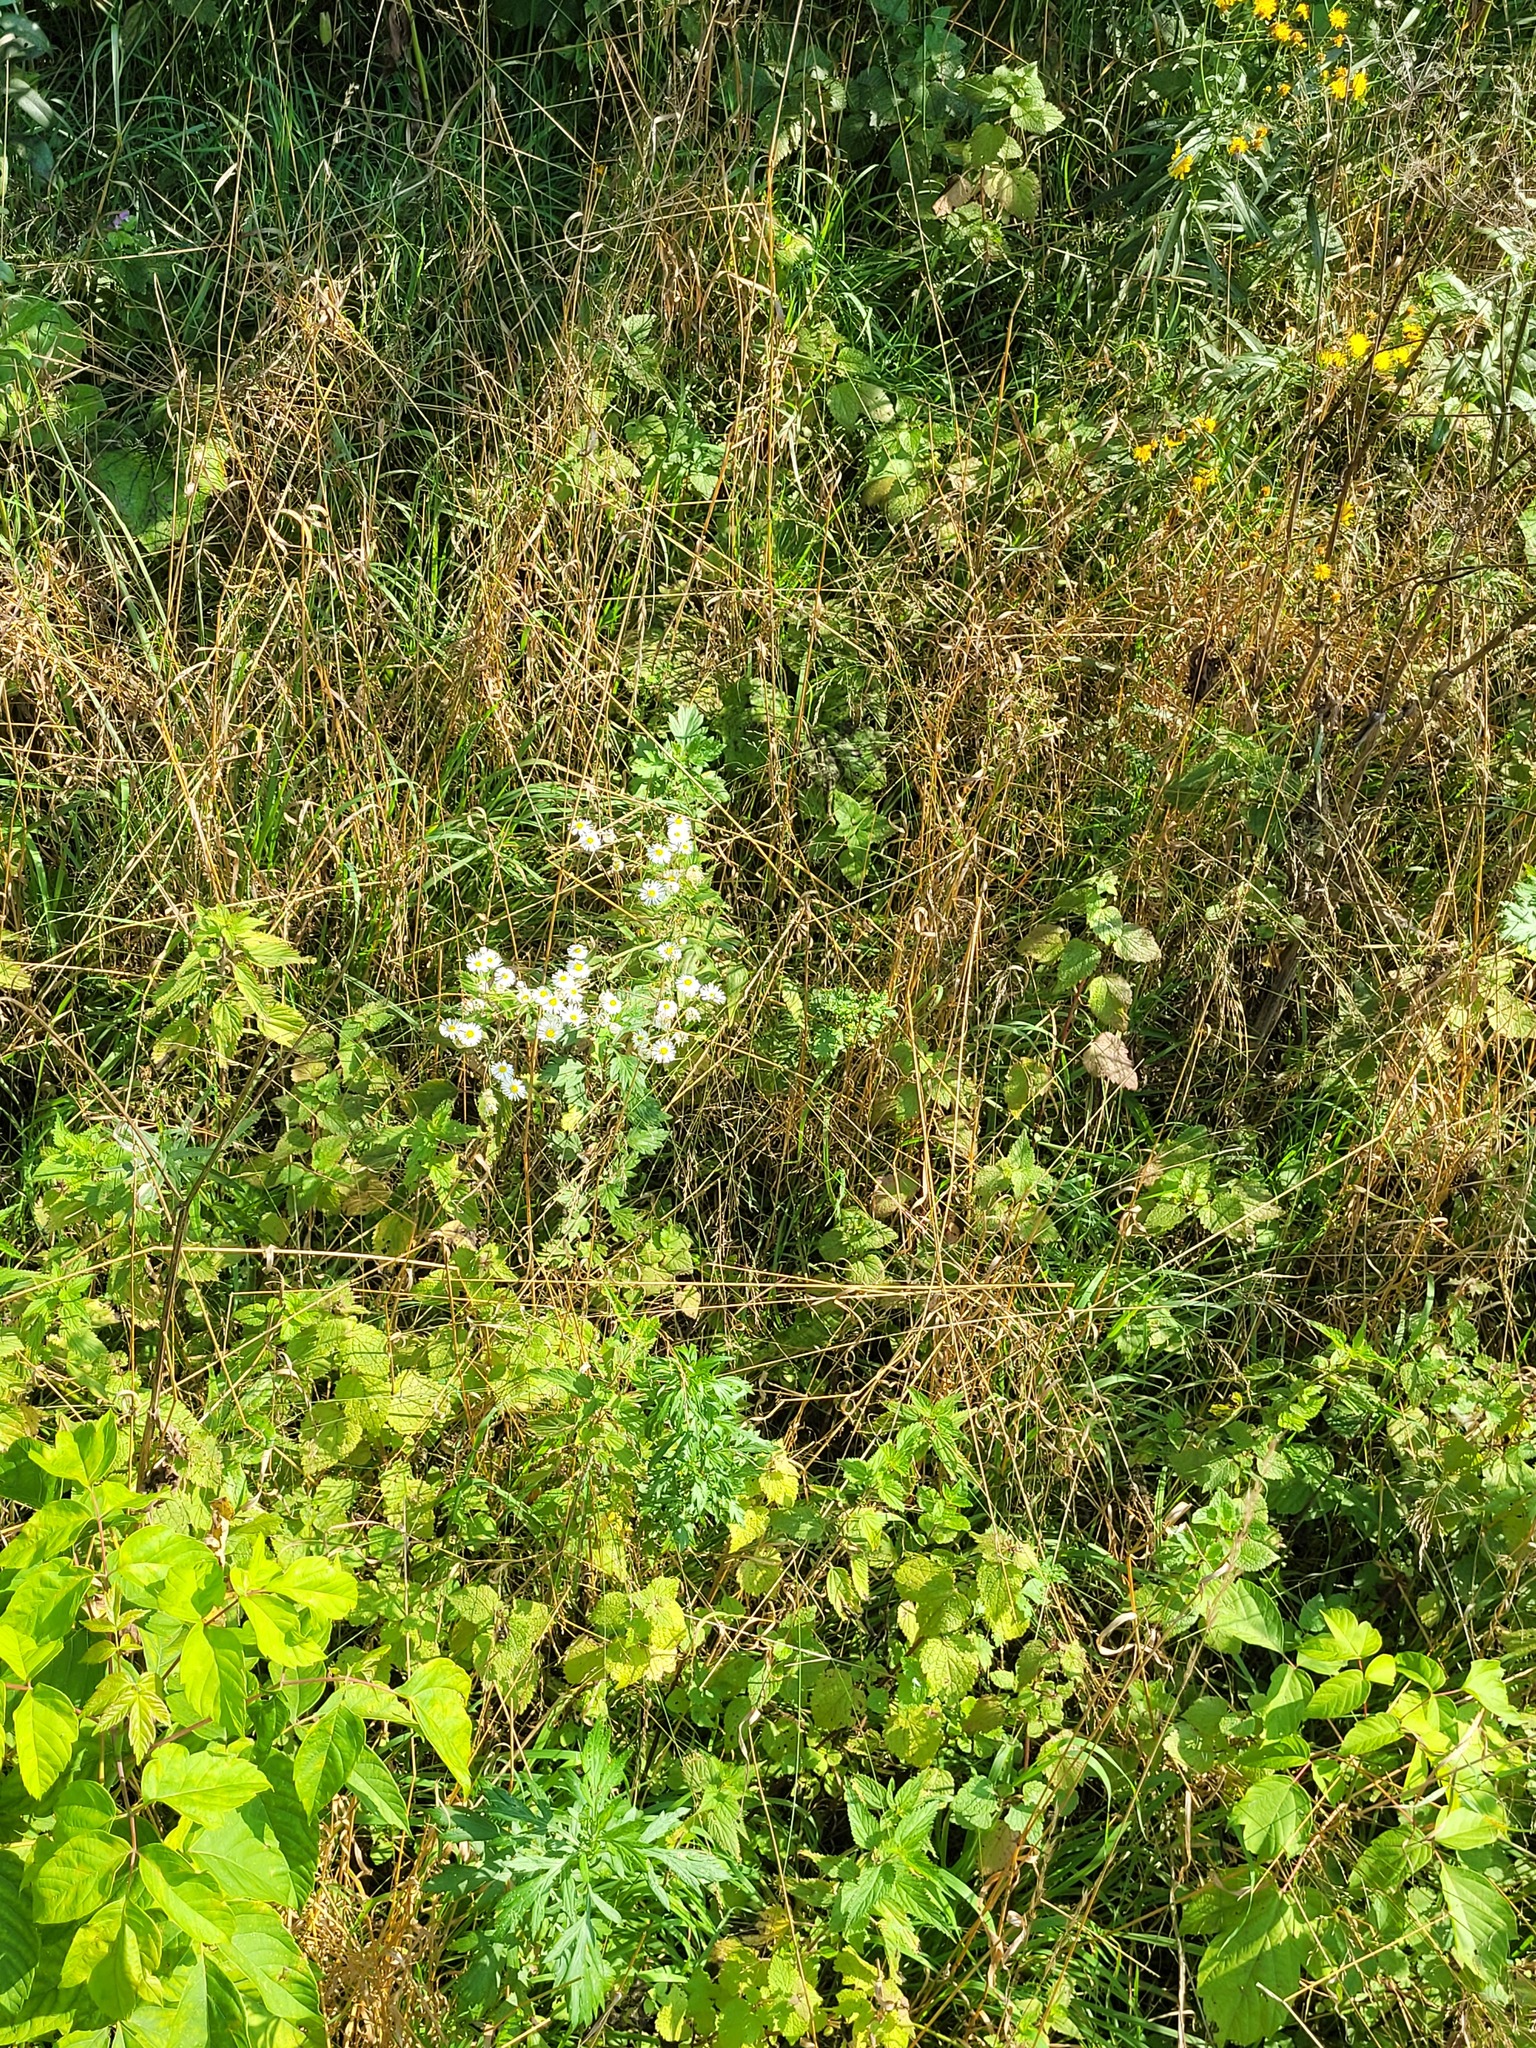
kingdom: Plantae
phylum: Tracheophyta
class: Magnoliopsida
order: Asterales
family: Asteraceae
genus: Erigeron
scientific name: Erigeron annuus
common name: Tall fleabane
